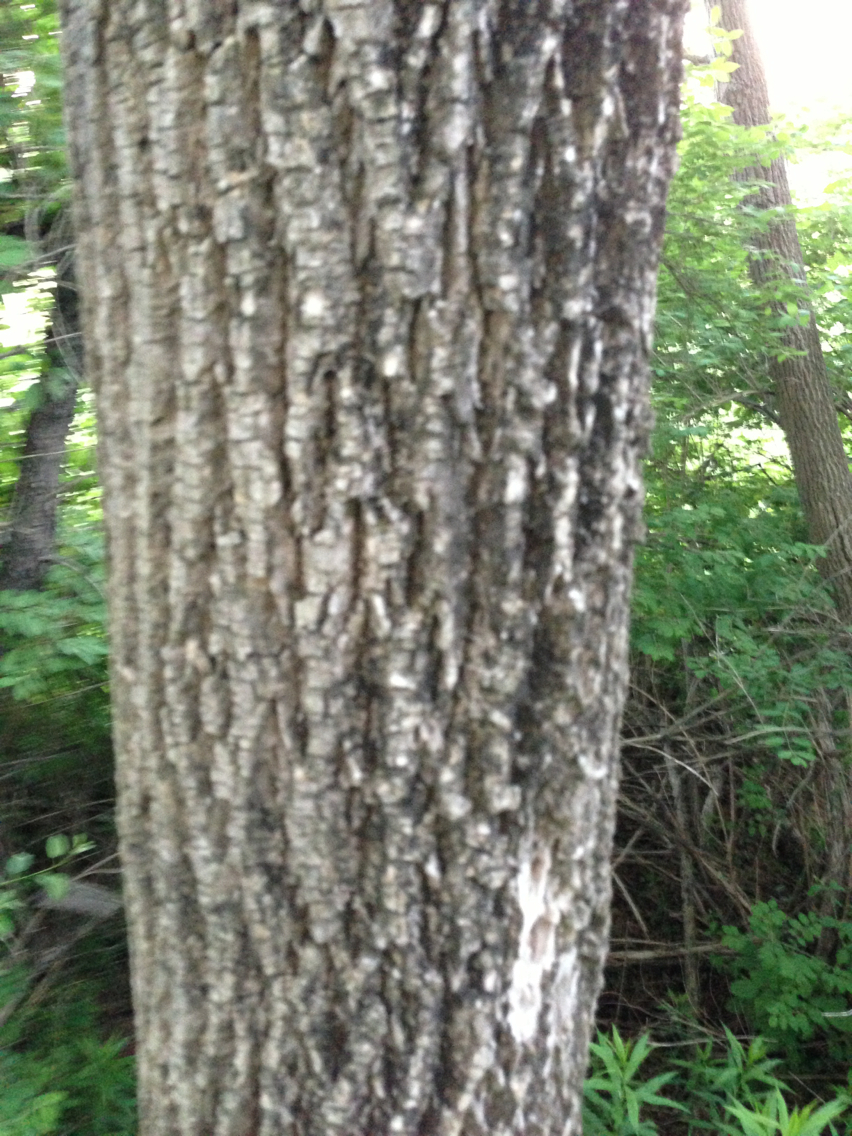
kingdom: Plantae
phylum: Tracheophyta
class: Magnoliopsida
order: Lamiales
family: Oleaceae
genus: Fraxinus
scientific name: Fraxinus americana
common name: White ash
